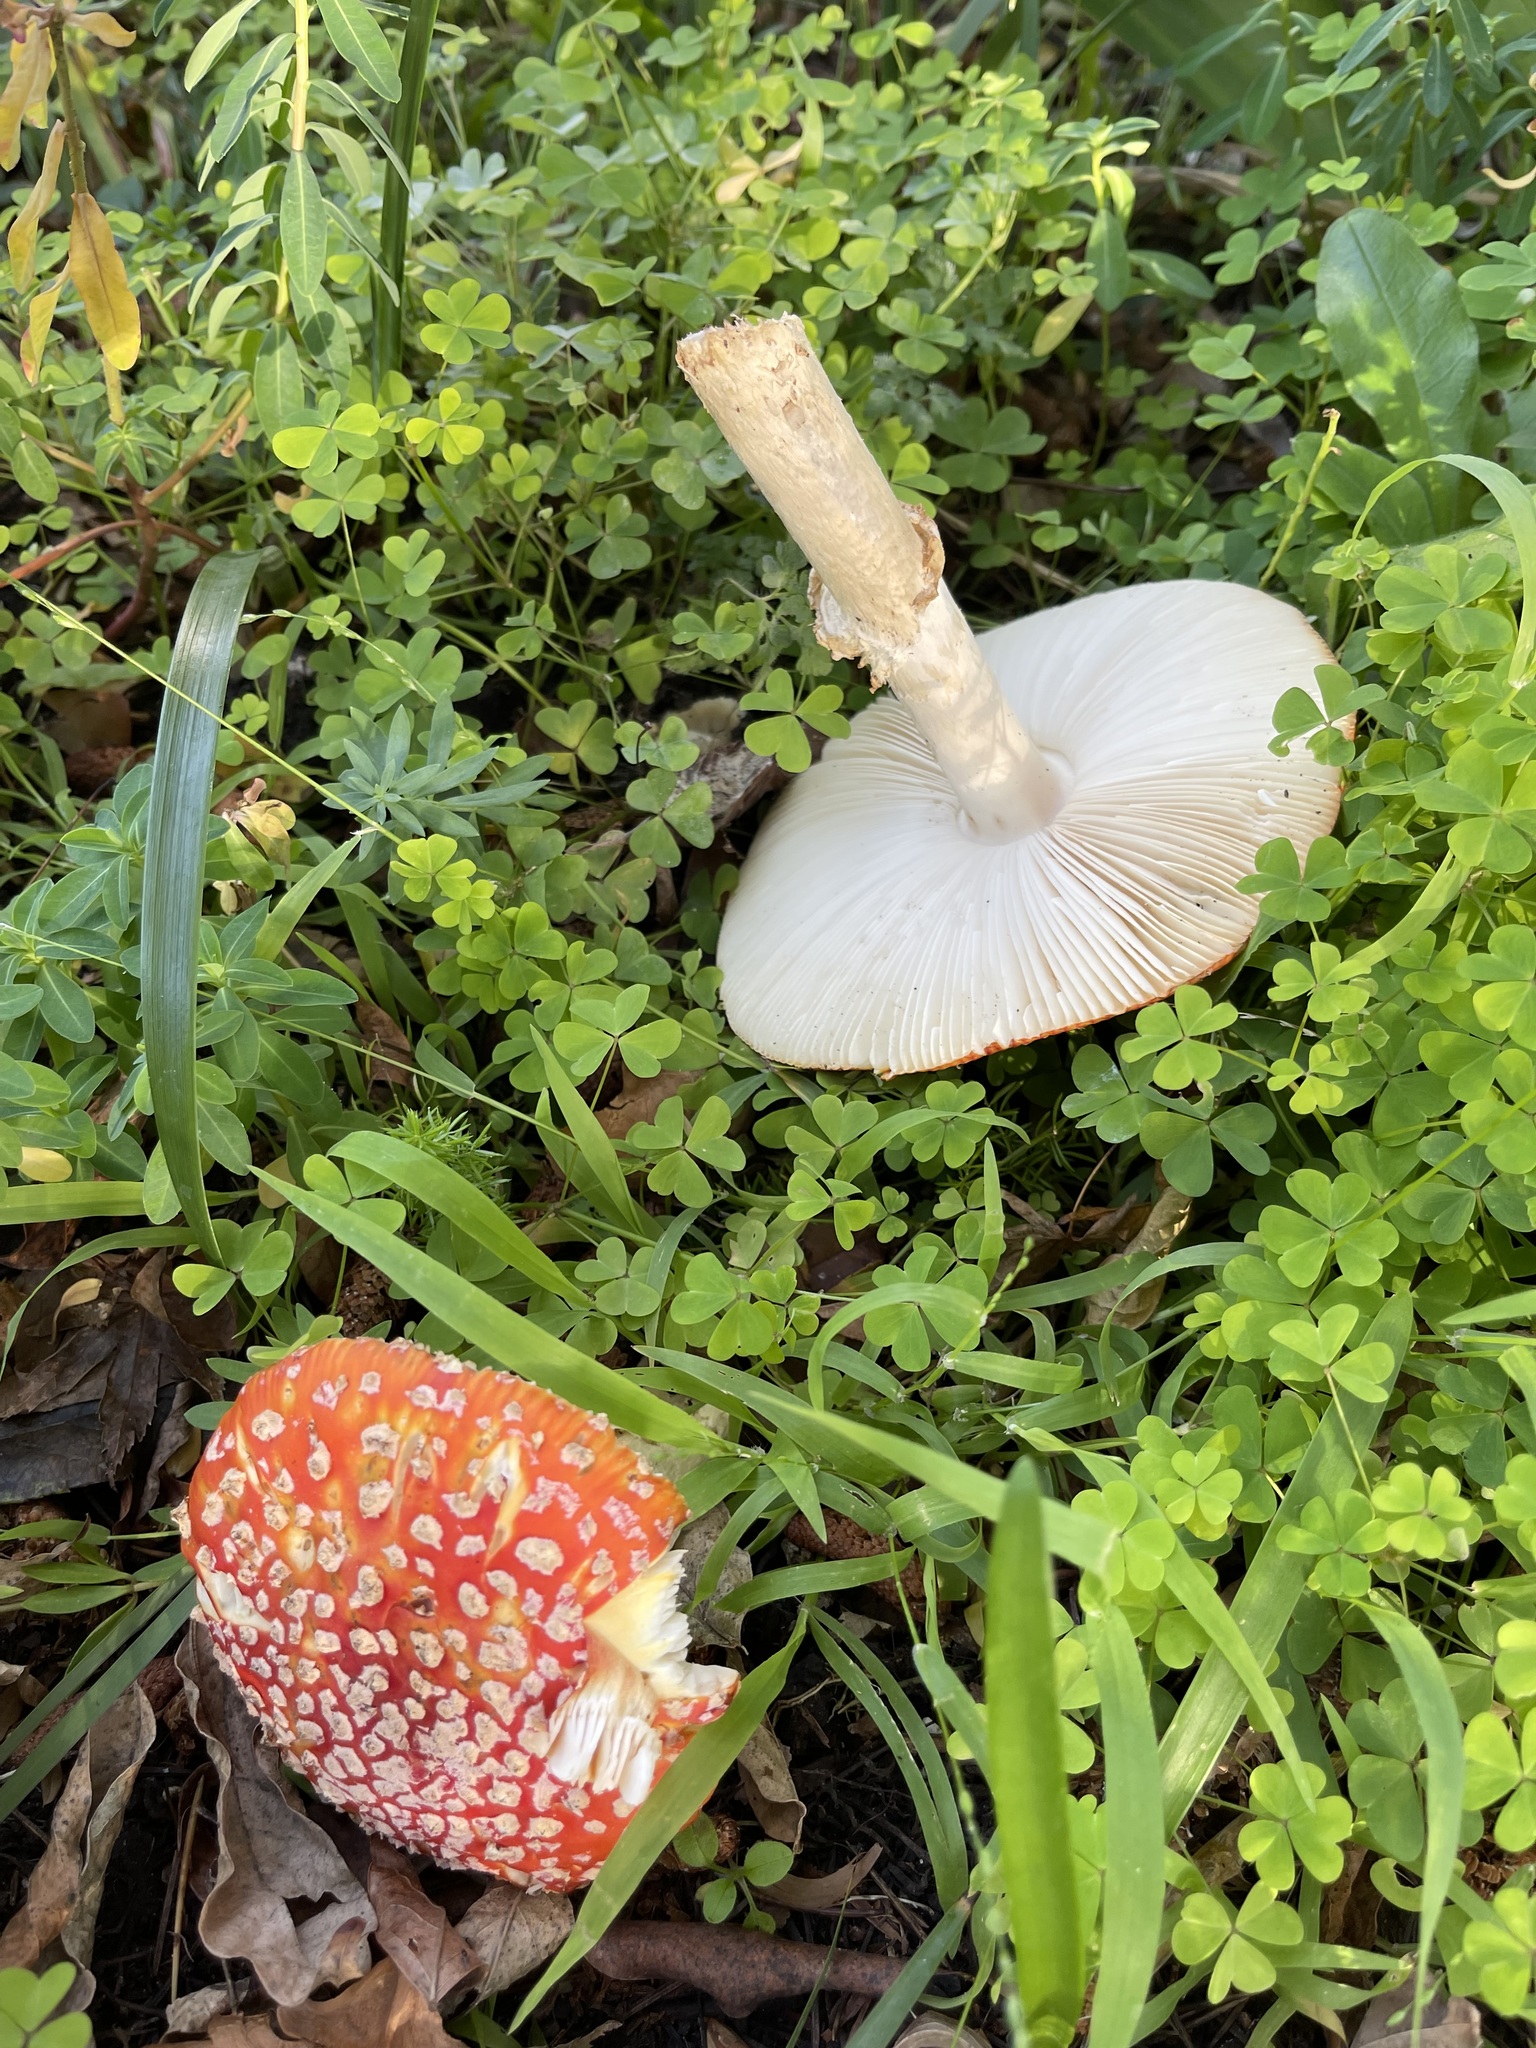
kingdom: Fungi
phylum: Basidiomycota
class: Agaricomycetes
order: Agaricales
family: Amanitaceae
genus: Amanita
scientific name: Amanita muscaria
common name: Fly agaric
